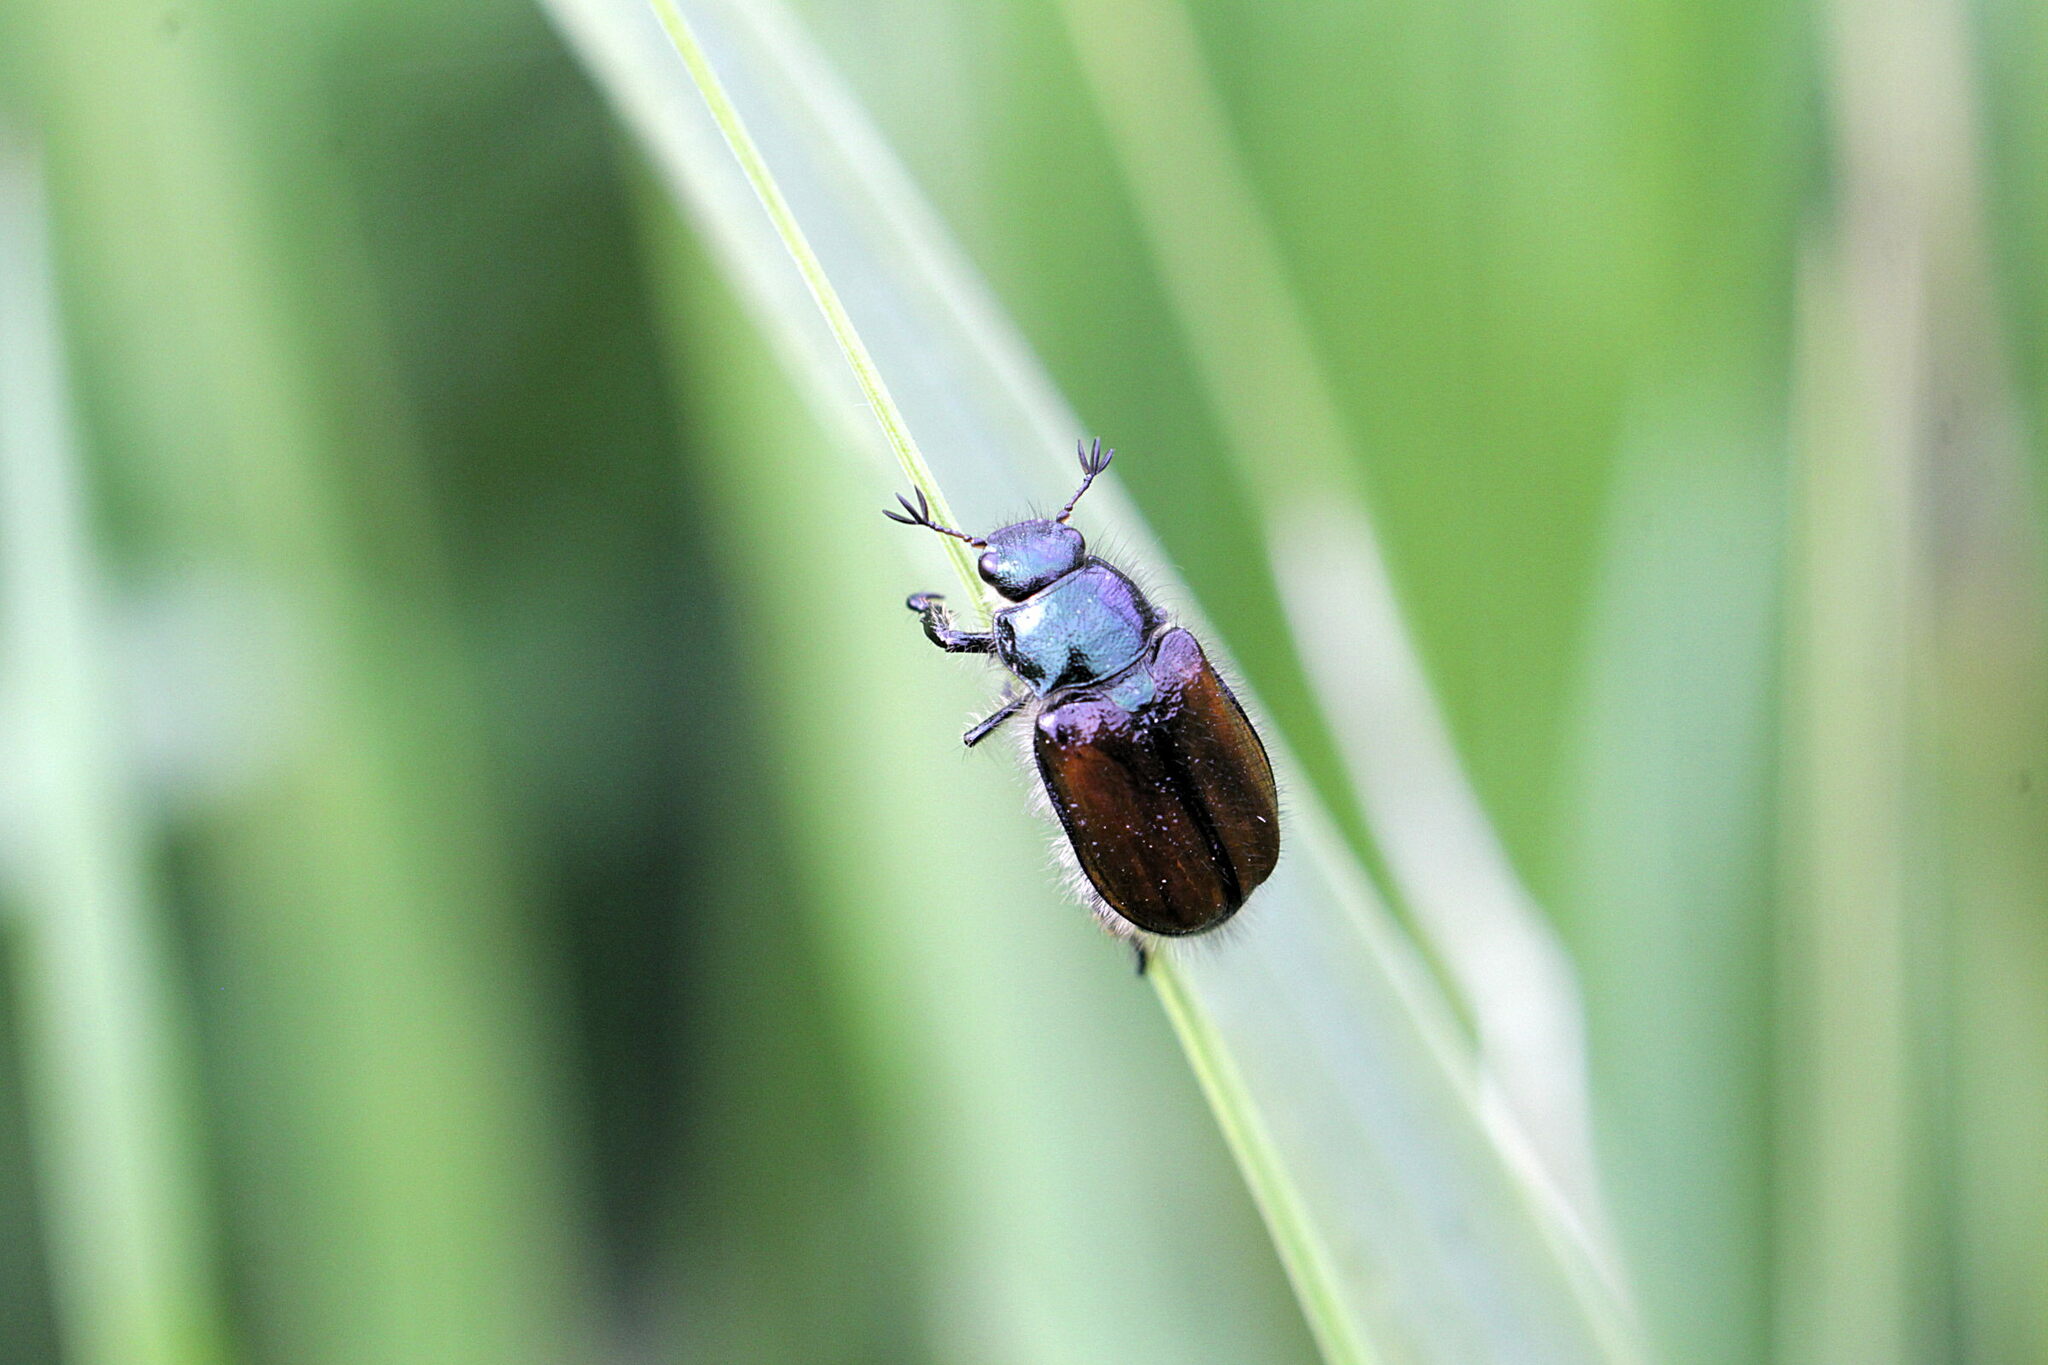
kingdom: Animalia
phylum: Arthropoda
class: Insecta
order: Coleoptera
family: Scarabaeidae
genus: Phyllopertha
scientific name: Phyllopertha horticola
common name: Garden chafer
